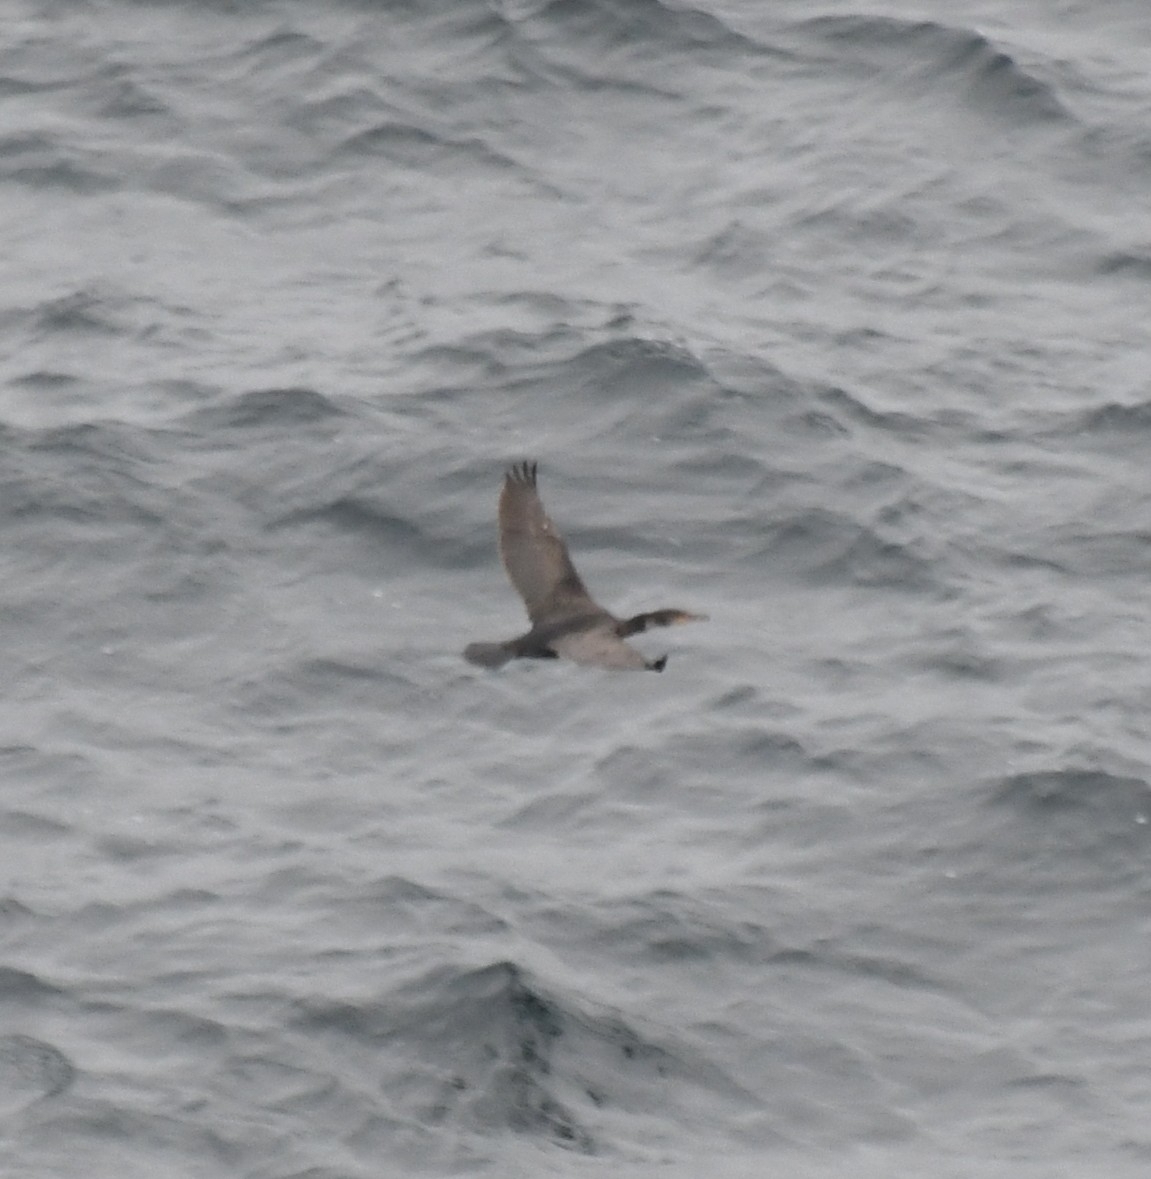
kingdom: Animalia
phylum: Chordata
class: Aves
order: Suliformes
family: Phalacrocoracidae
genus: Phalacrocorax
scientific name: Phalacrocorax auritus
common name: Double-crested cormorant
